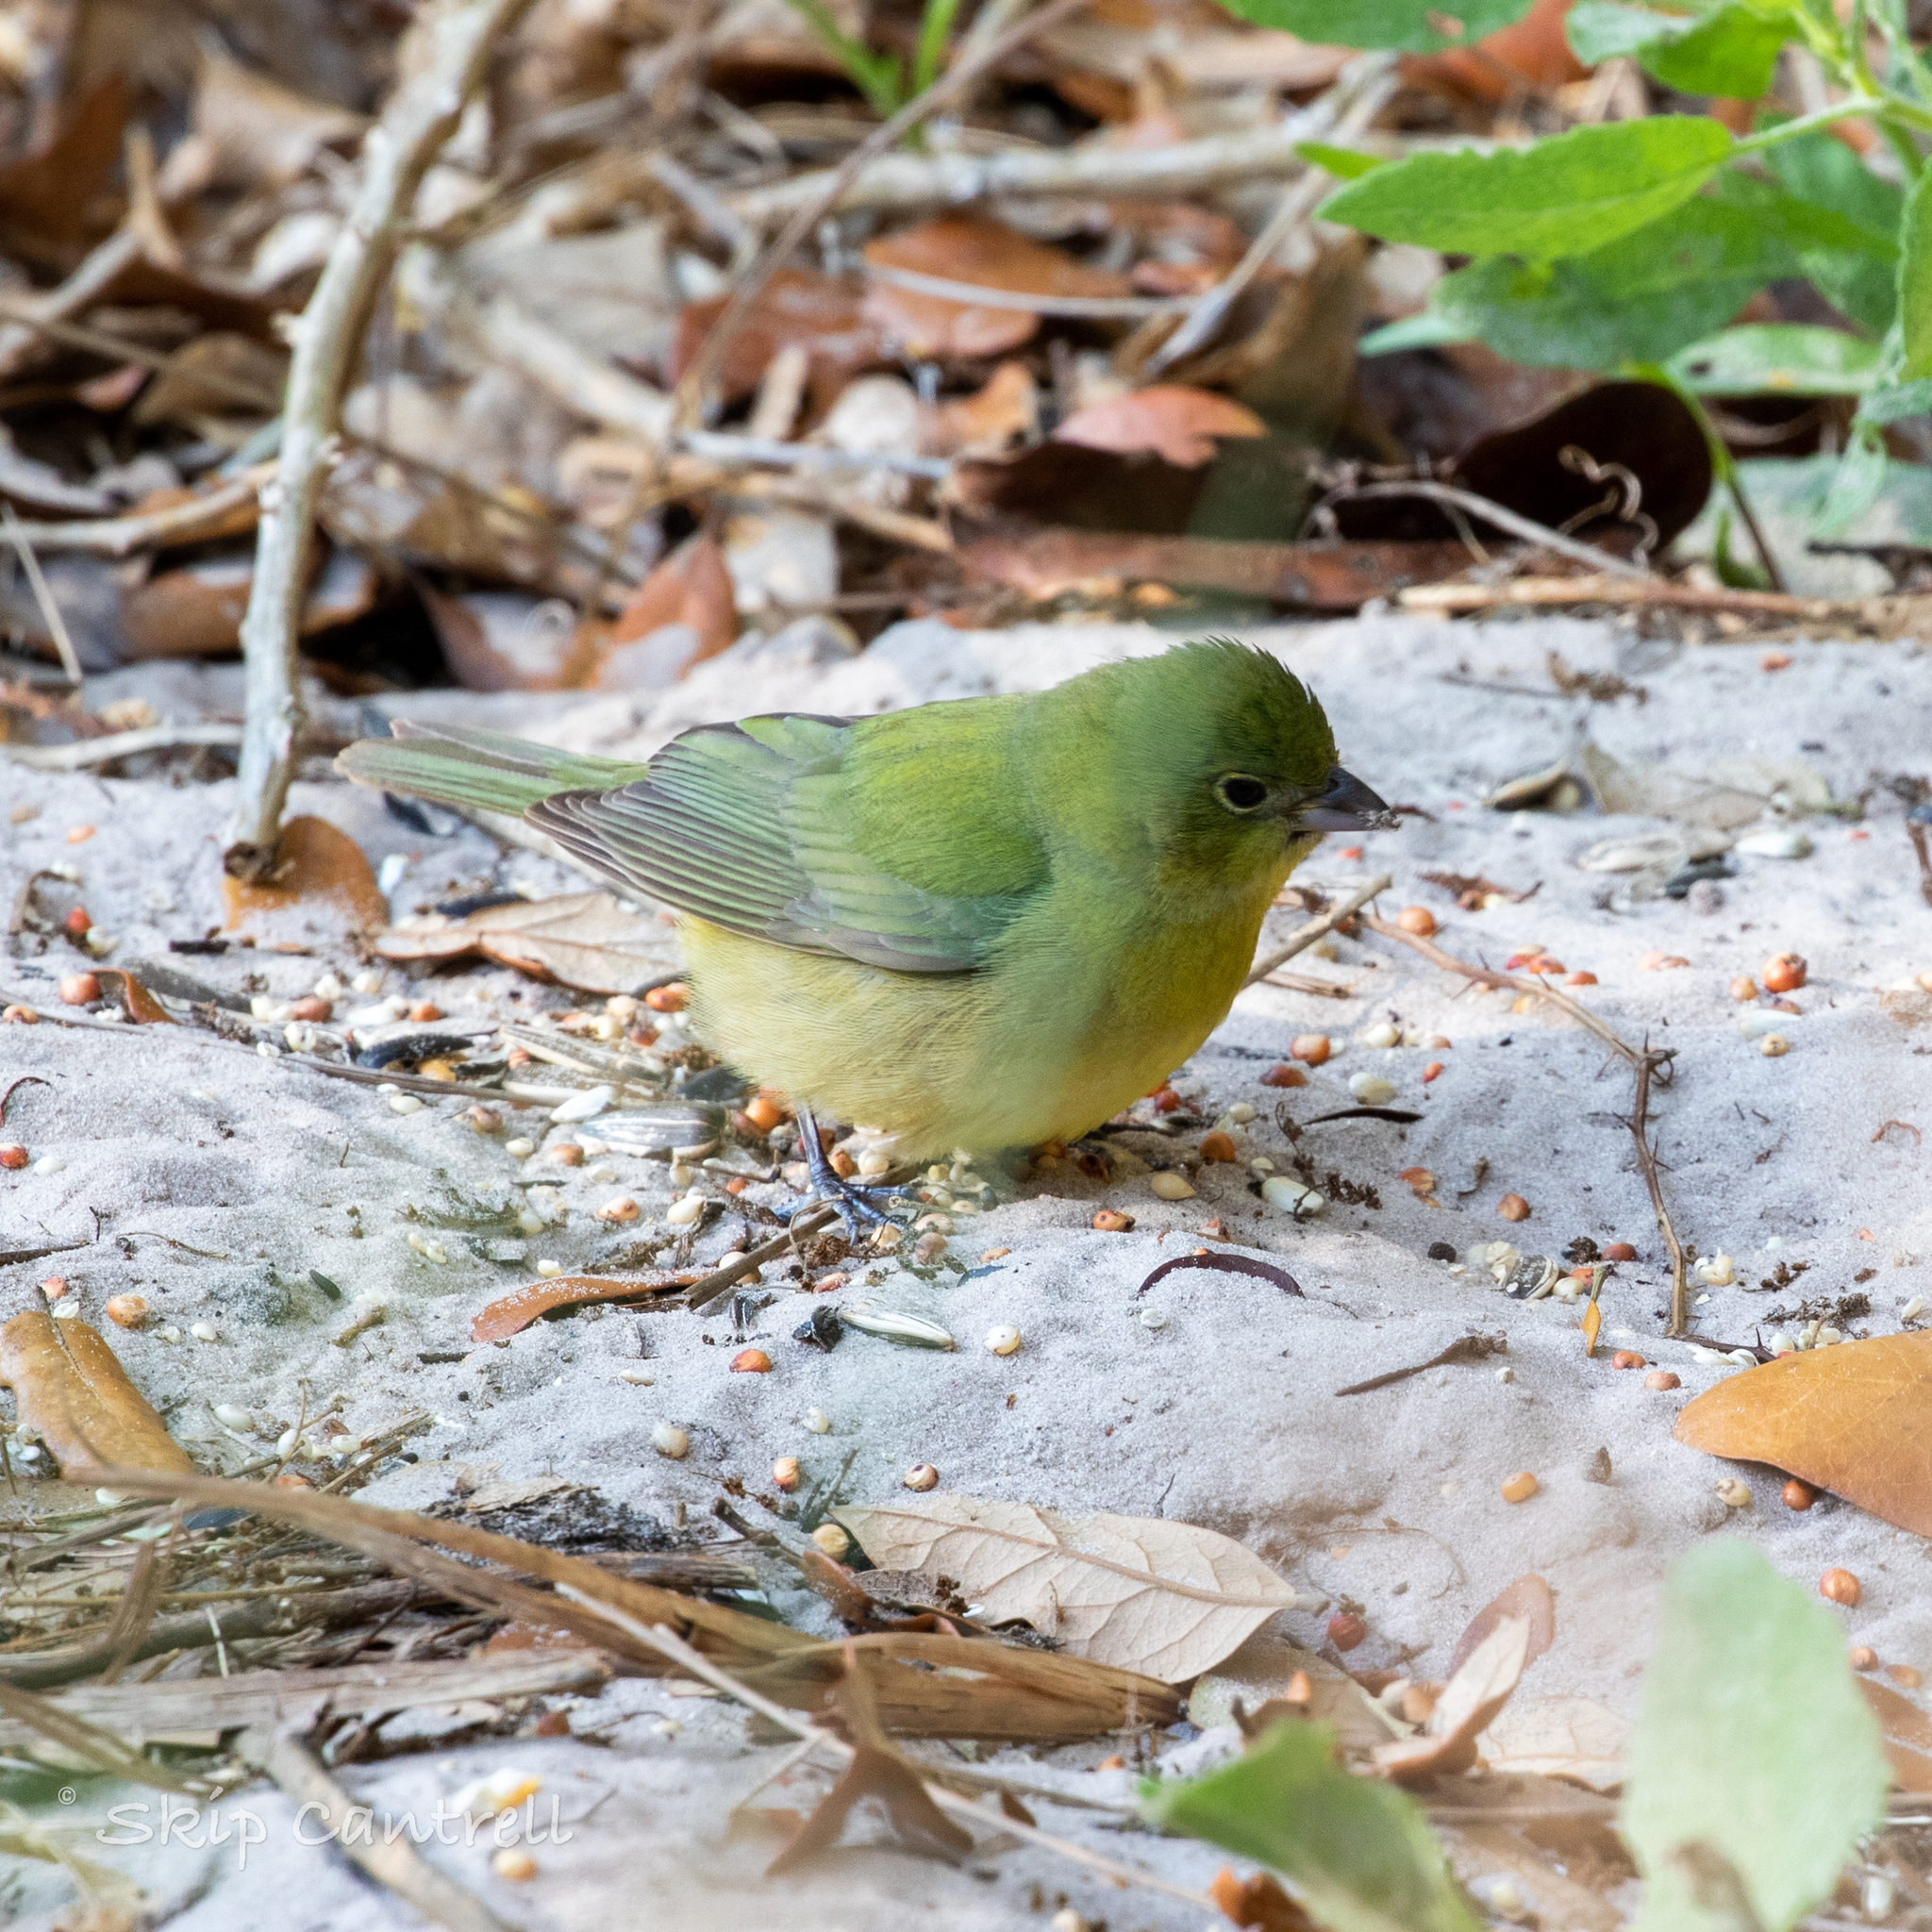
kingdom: Animalia
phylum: Chordata
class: Aves
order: Passeriformes
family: Cardinalidae
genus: Passerina
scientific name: Passerina ciris
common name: Painted bunting
